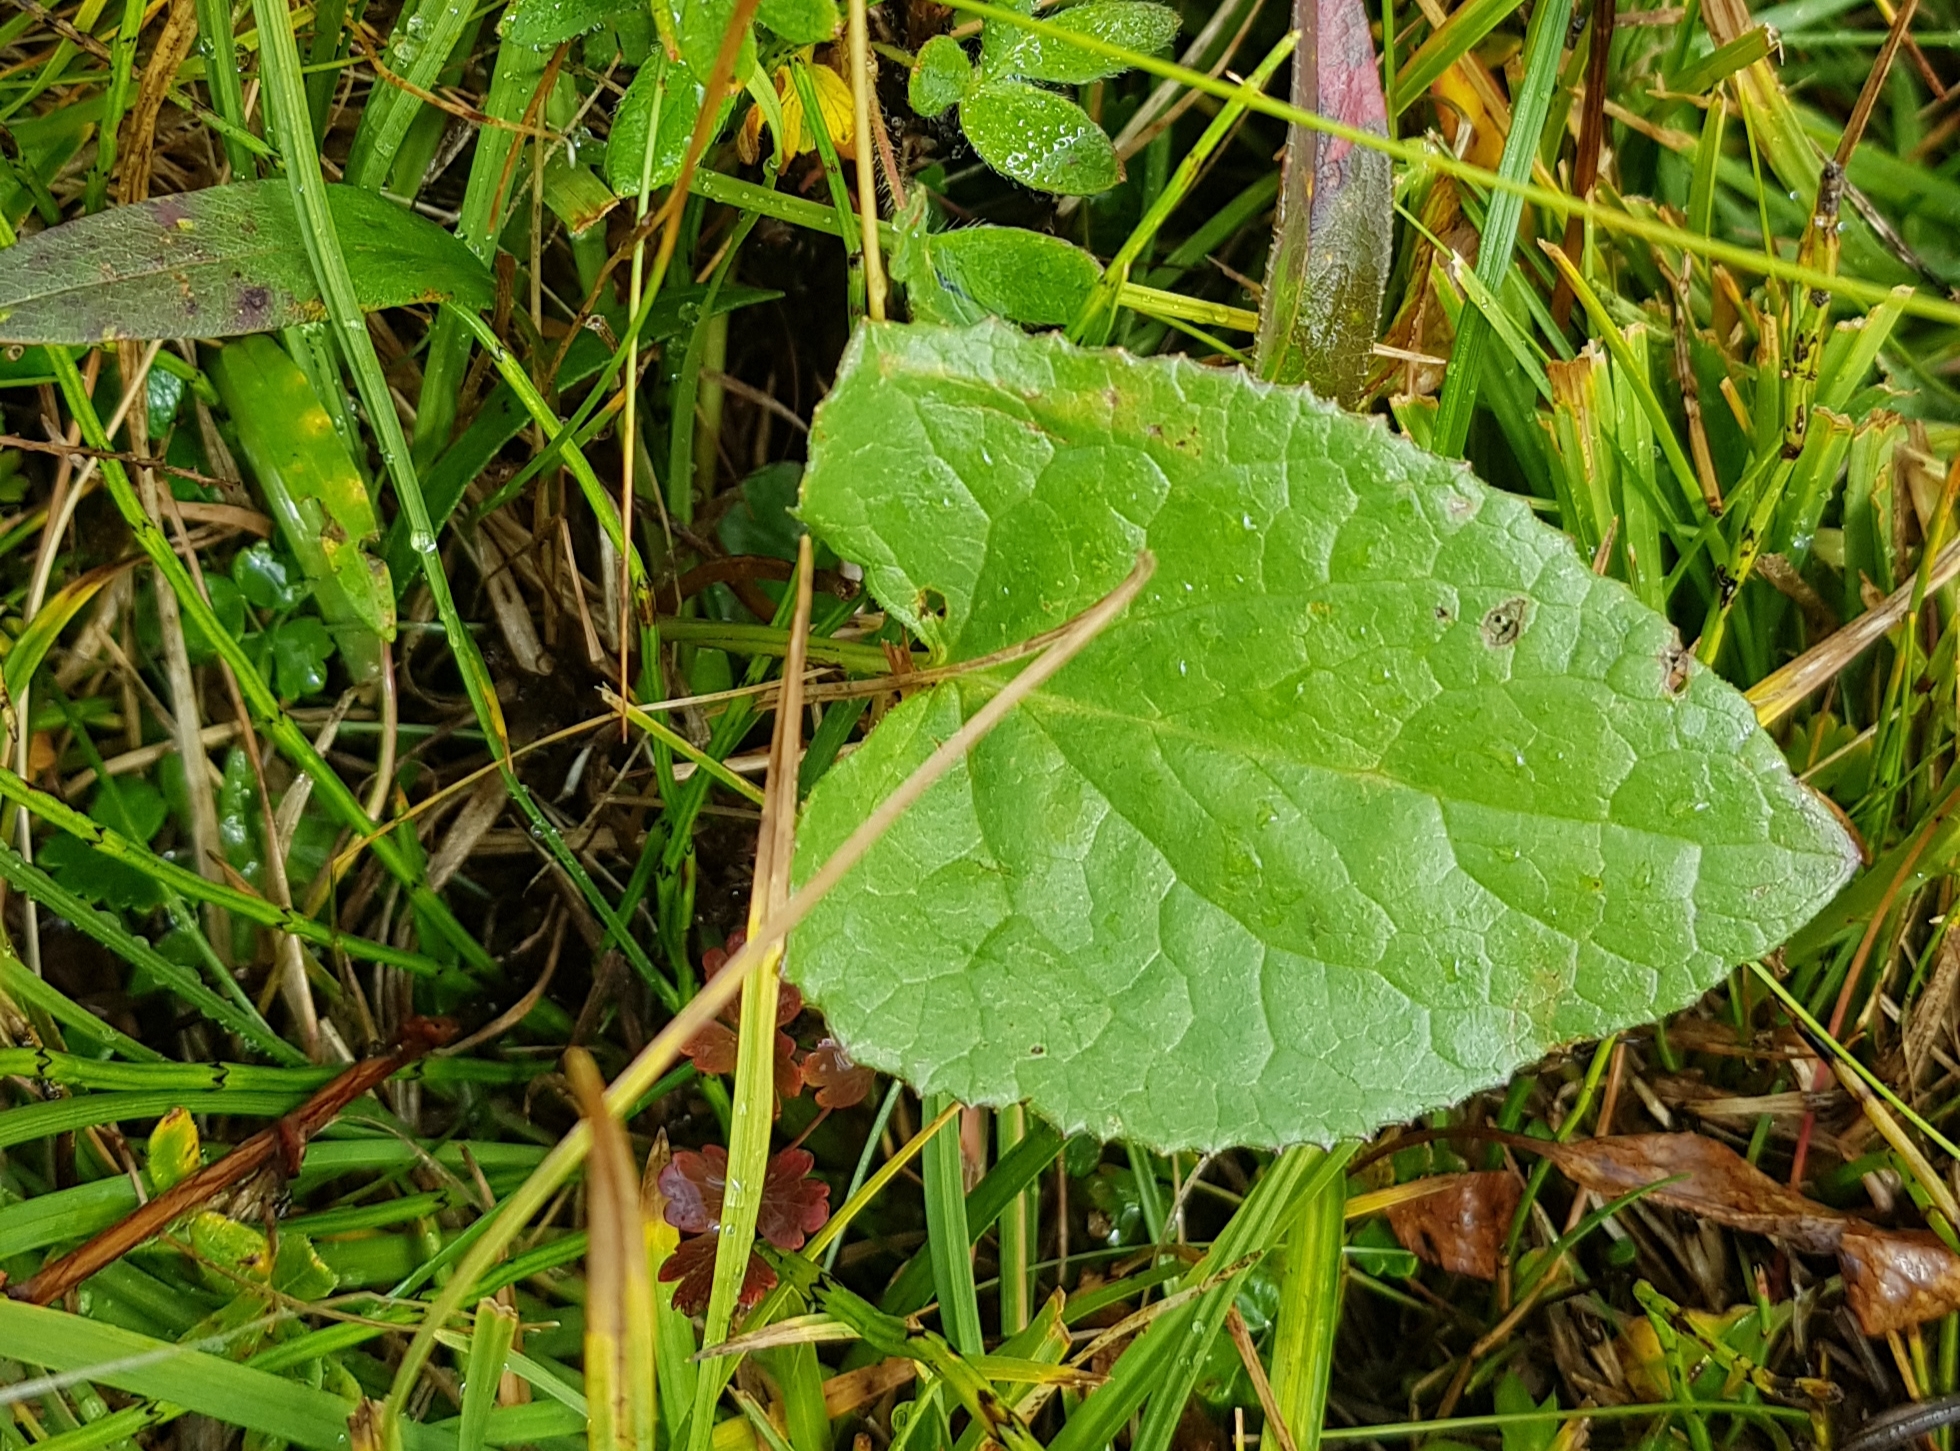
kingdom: Plantae
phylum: Tracheophyta
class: Magnoliopsida
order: Asterales
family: Asteraceae
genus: Ligularia
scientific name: Ligularia sibirica
